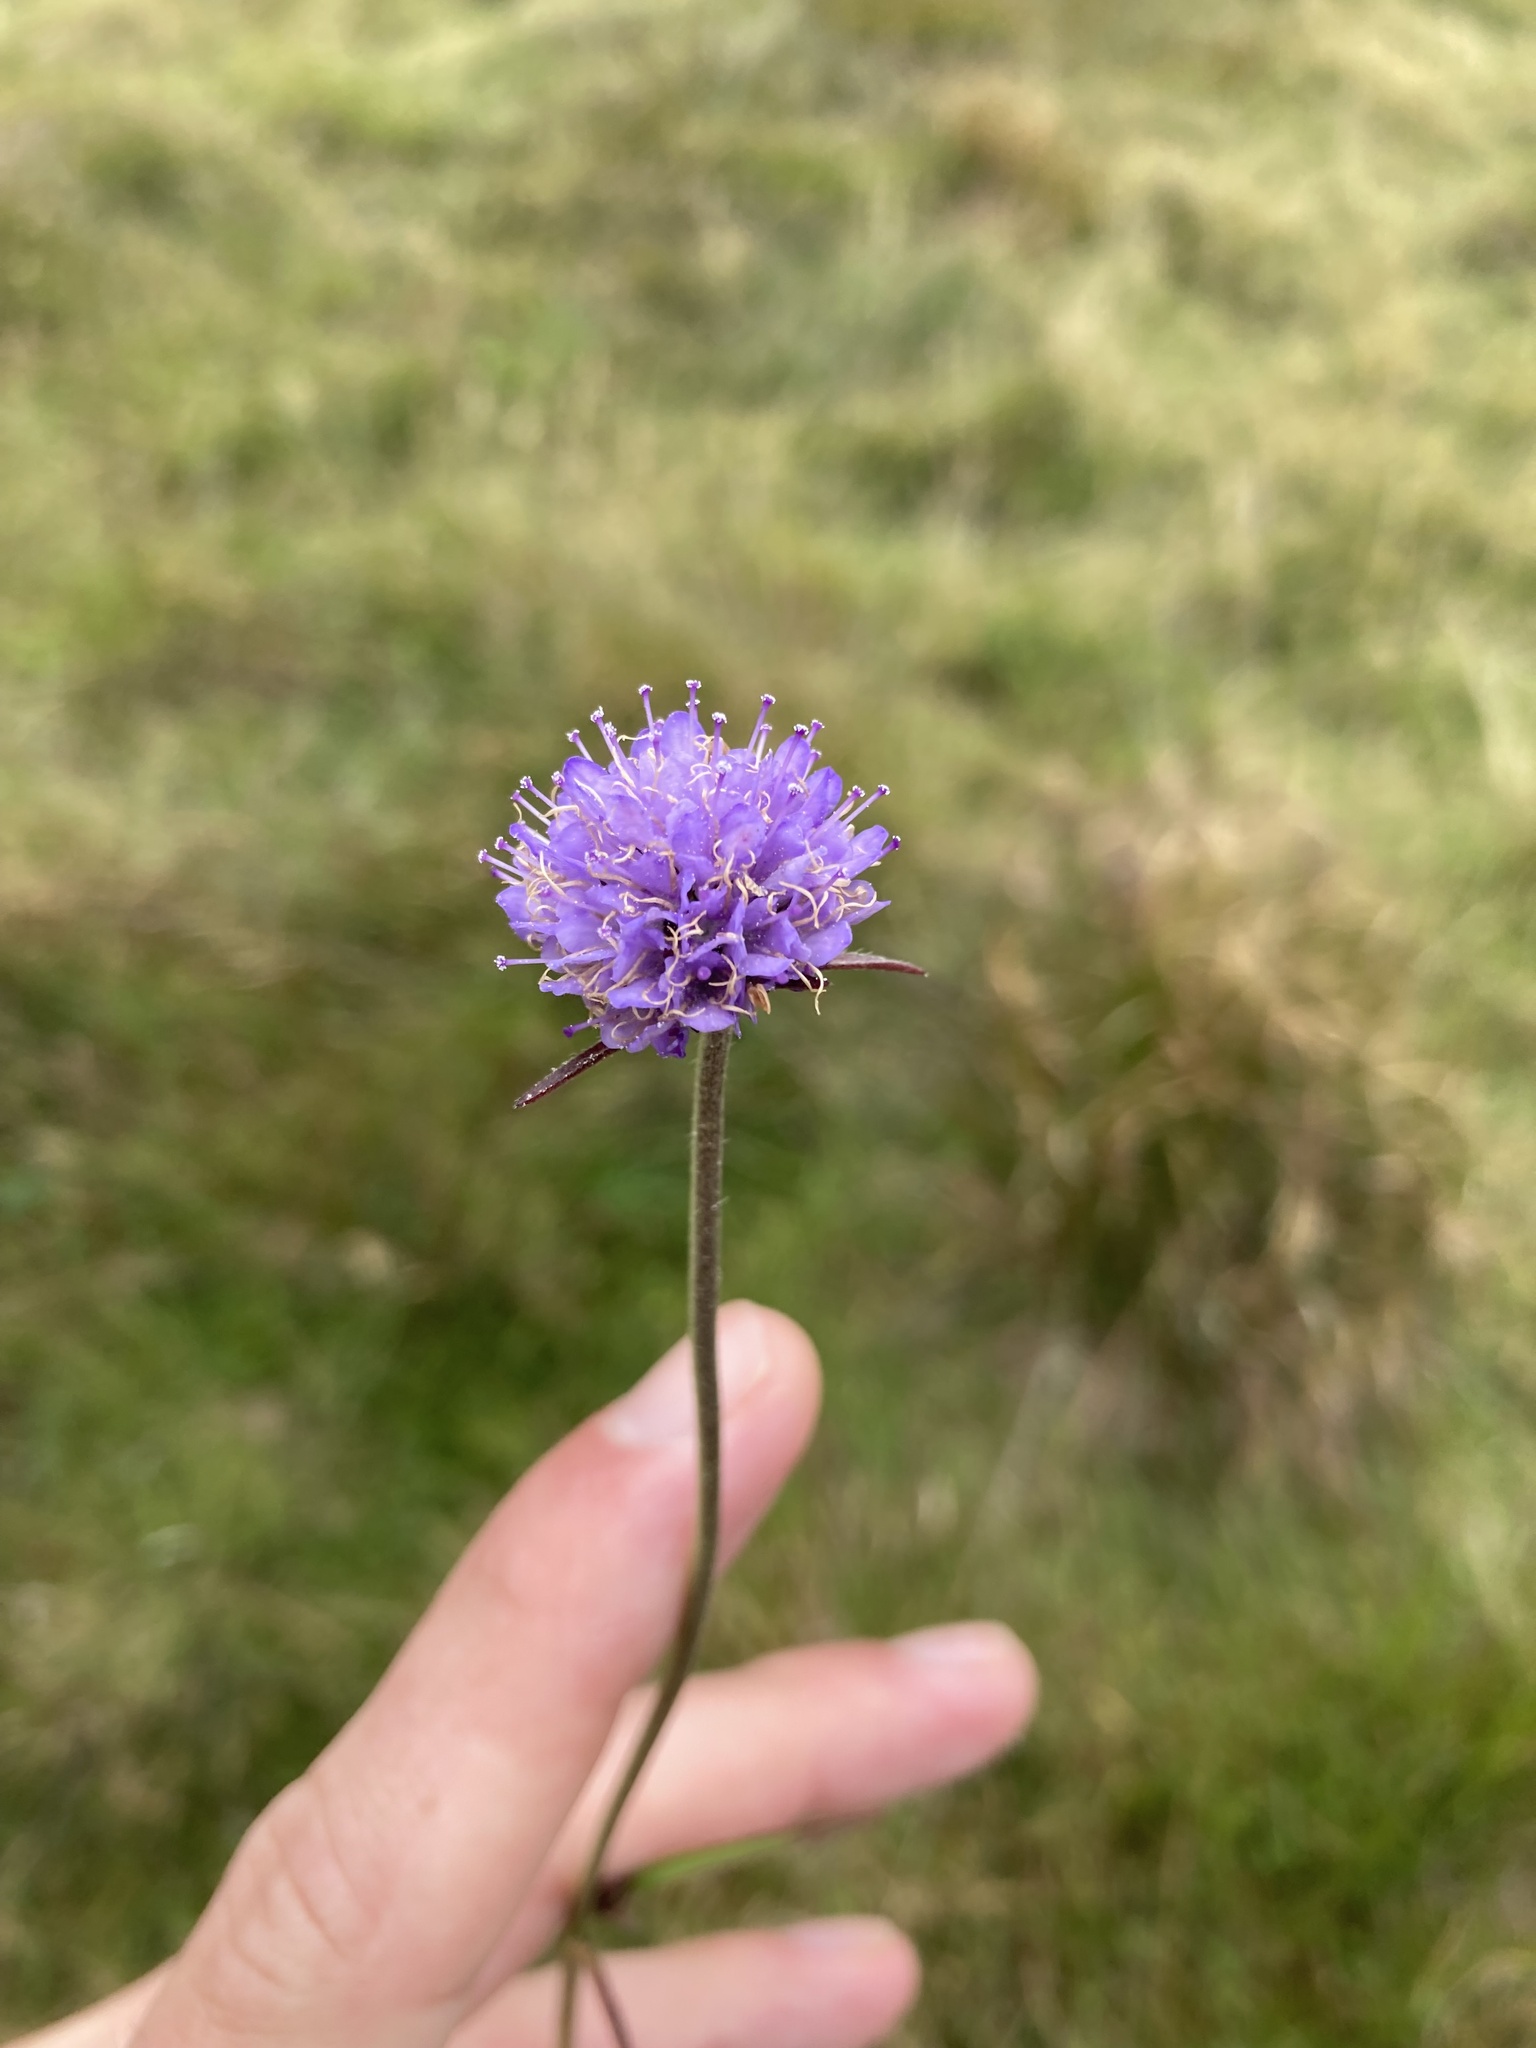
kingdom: Plantae
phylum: Tracheophyta
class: Magnoliopsida
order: Dipsacales
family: Caprifoliaceae
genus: Succisa
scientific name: Succisa pratensis
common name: Devil's-bit
